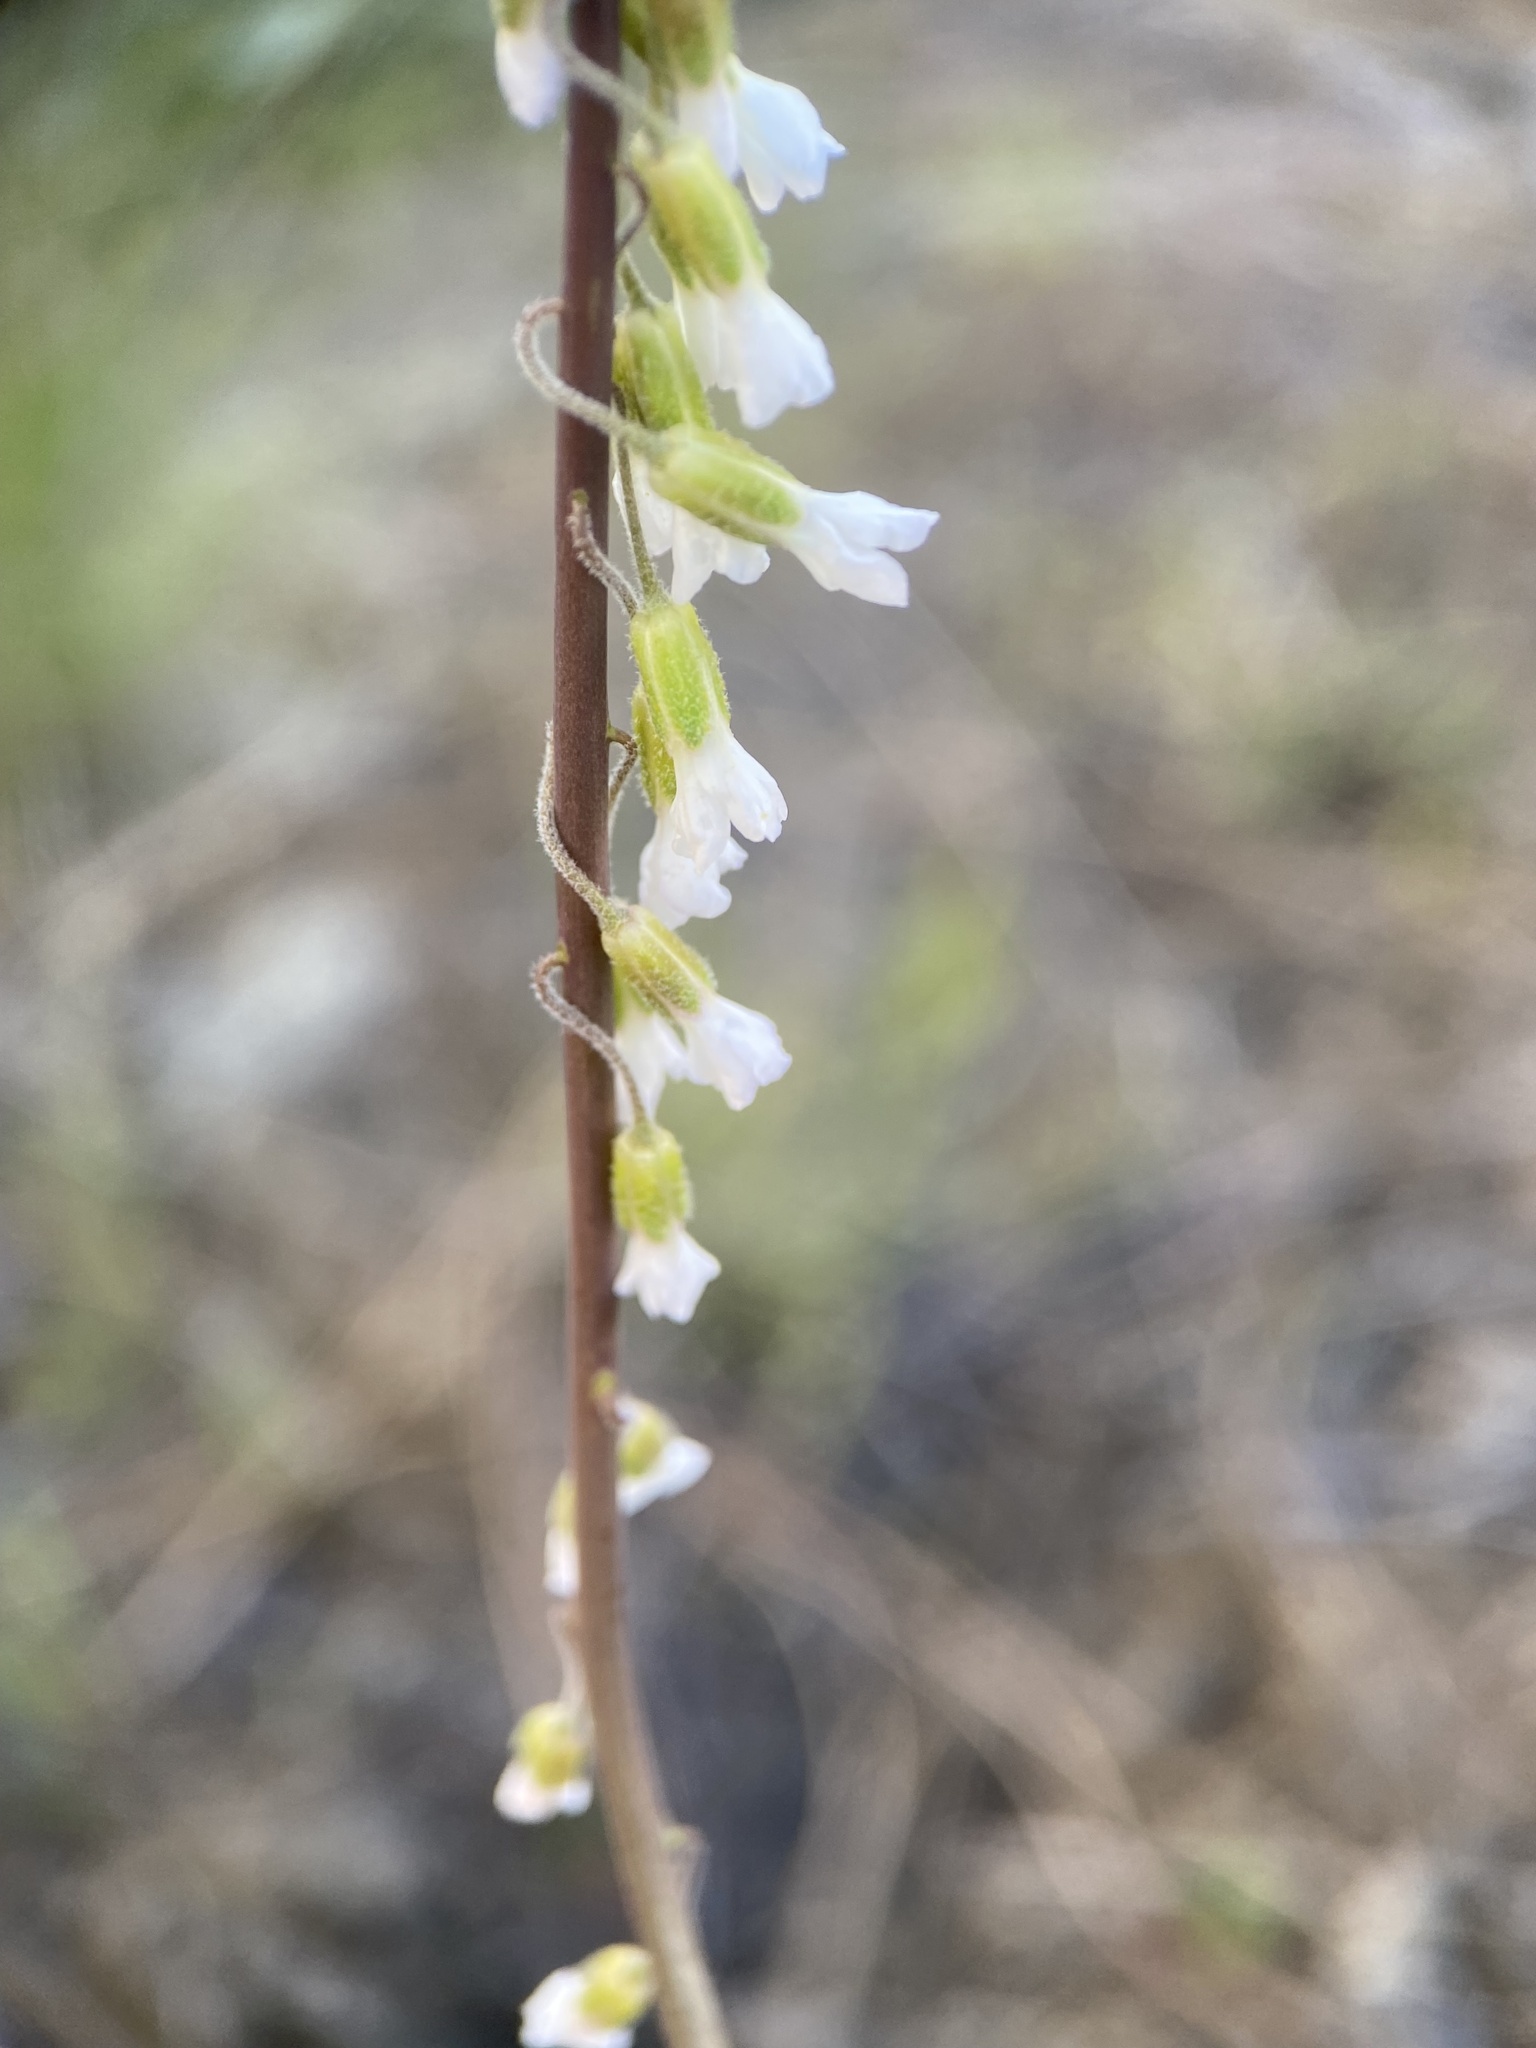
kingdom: Plantae
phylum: Tracheophyta
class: Magnoliopsida
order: Brassicales
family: Brassicaceae
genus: Boechera
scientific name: Boechera retrofracta
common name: Dangling suncress
